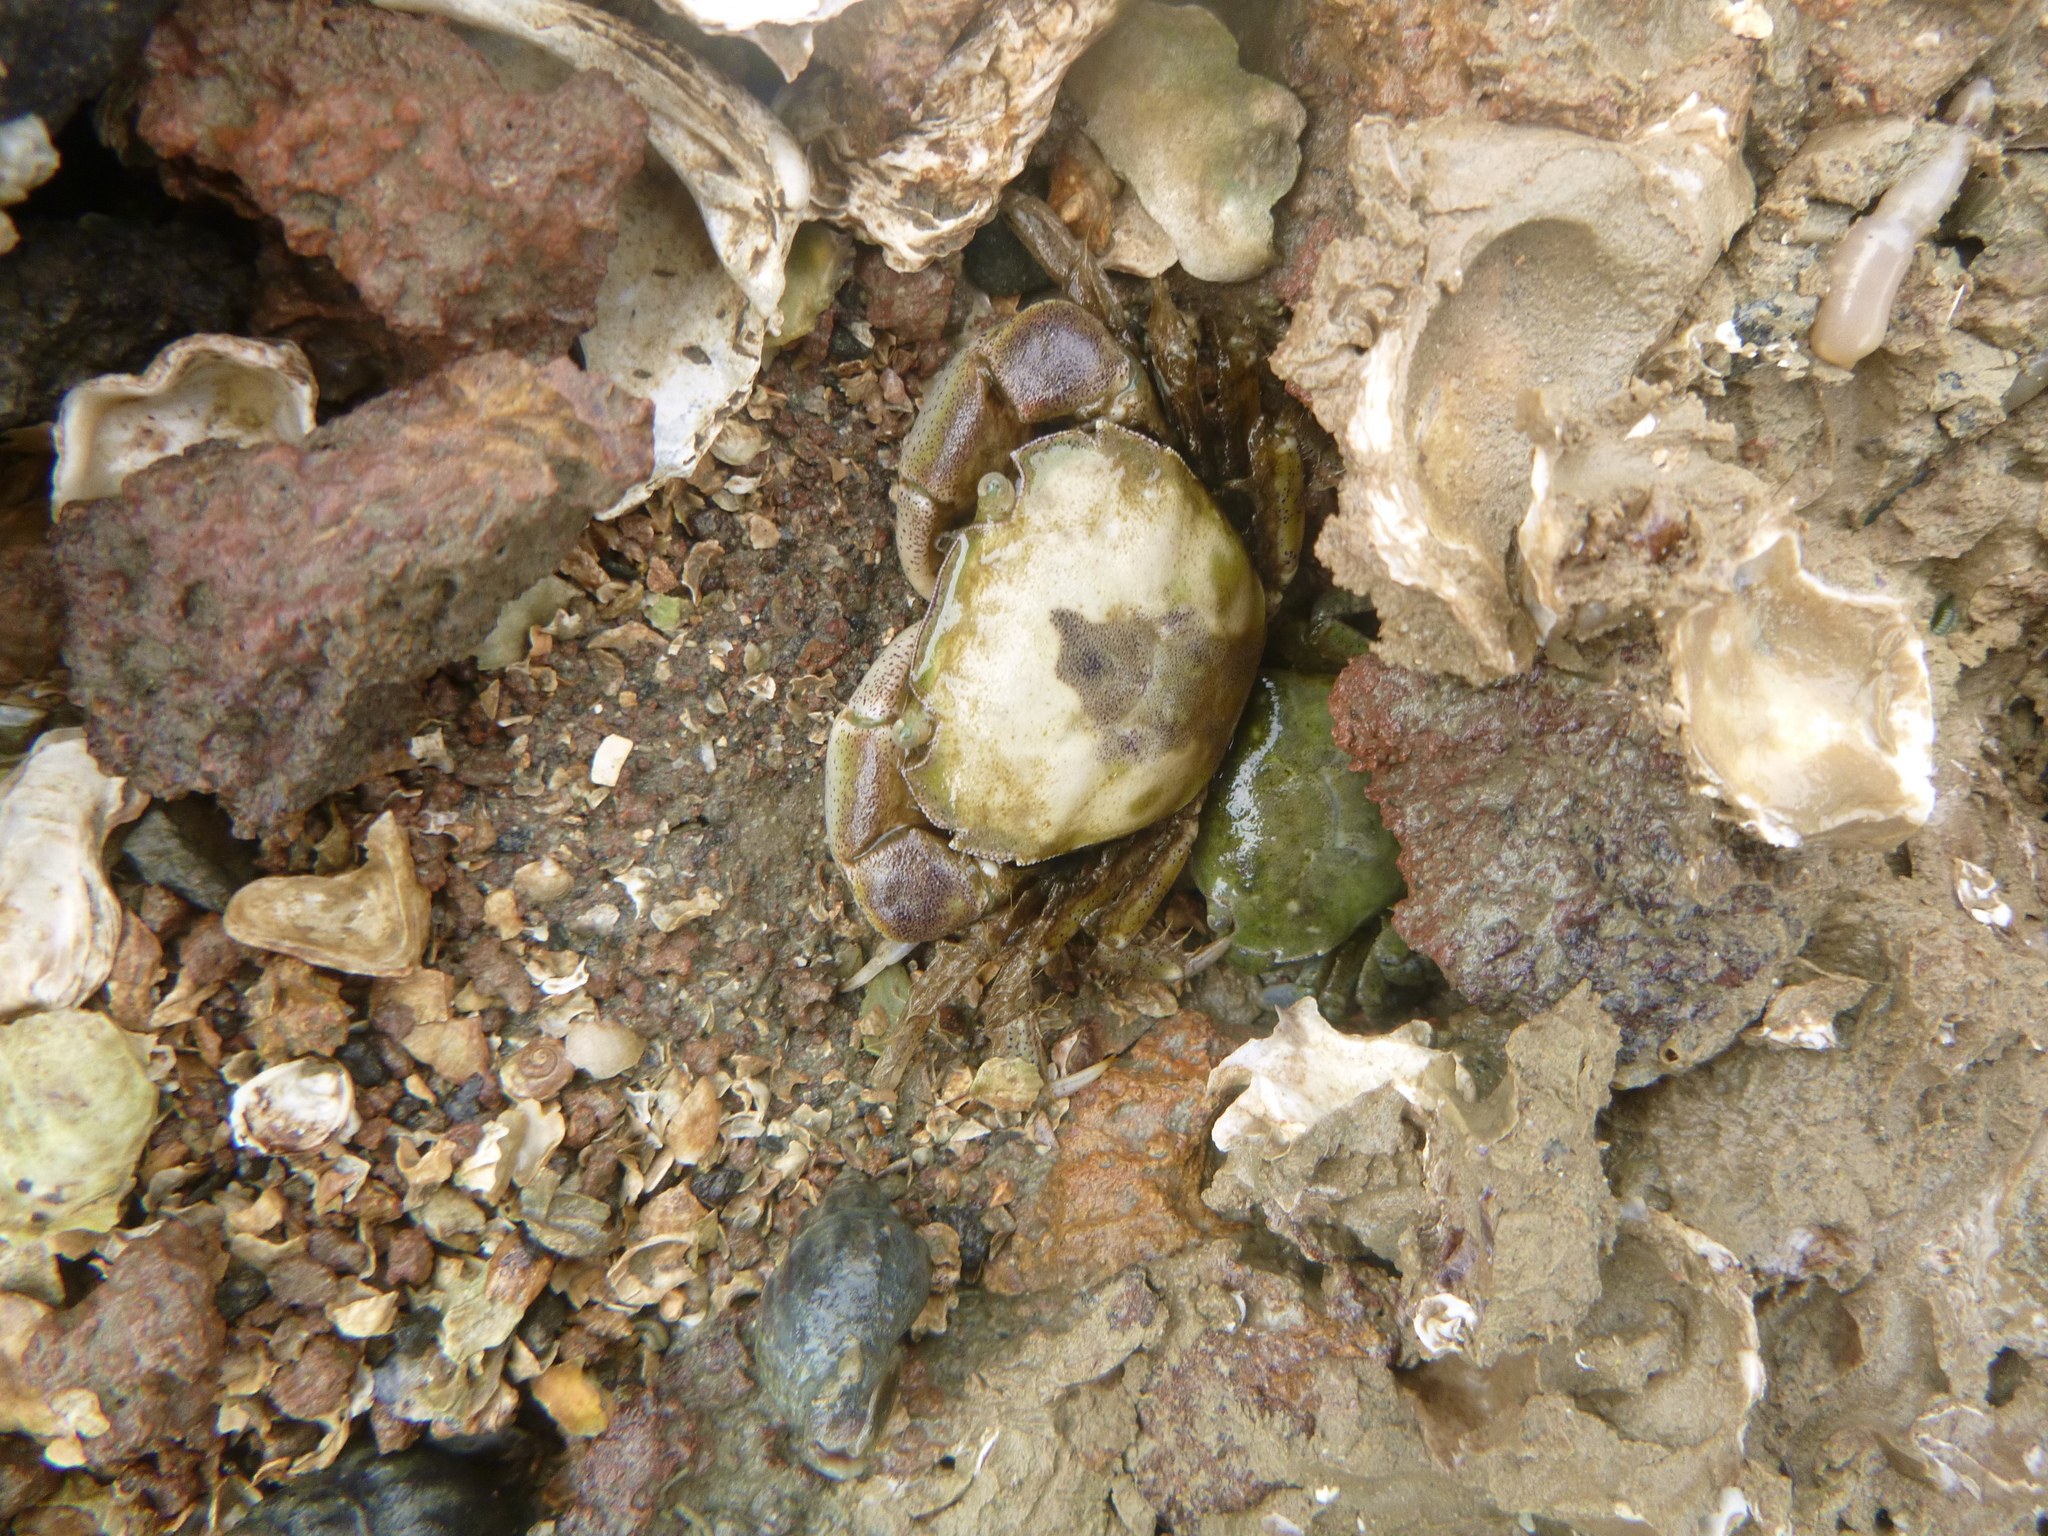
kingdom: Animalia
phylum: Arthropoda
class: Malacostraca
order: Decapoda
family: Varunidae
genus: Hemigrapsus
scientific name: Hemigrapsus crenulatus
